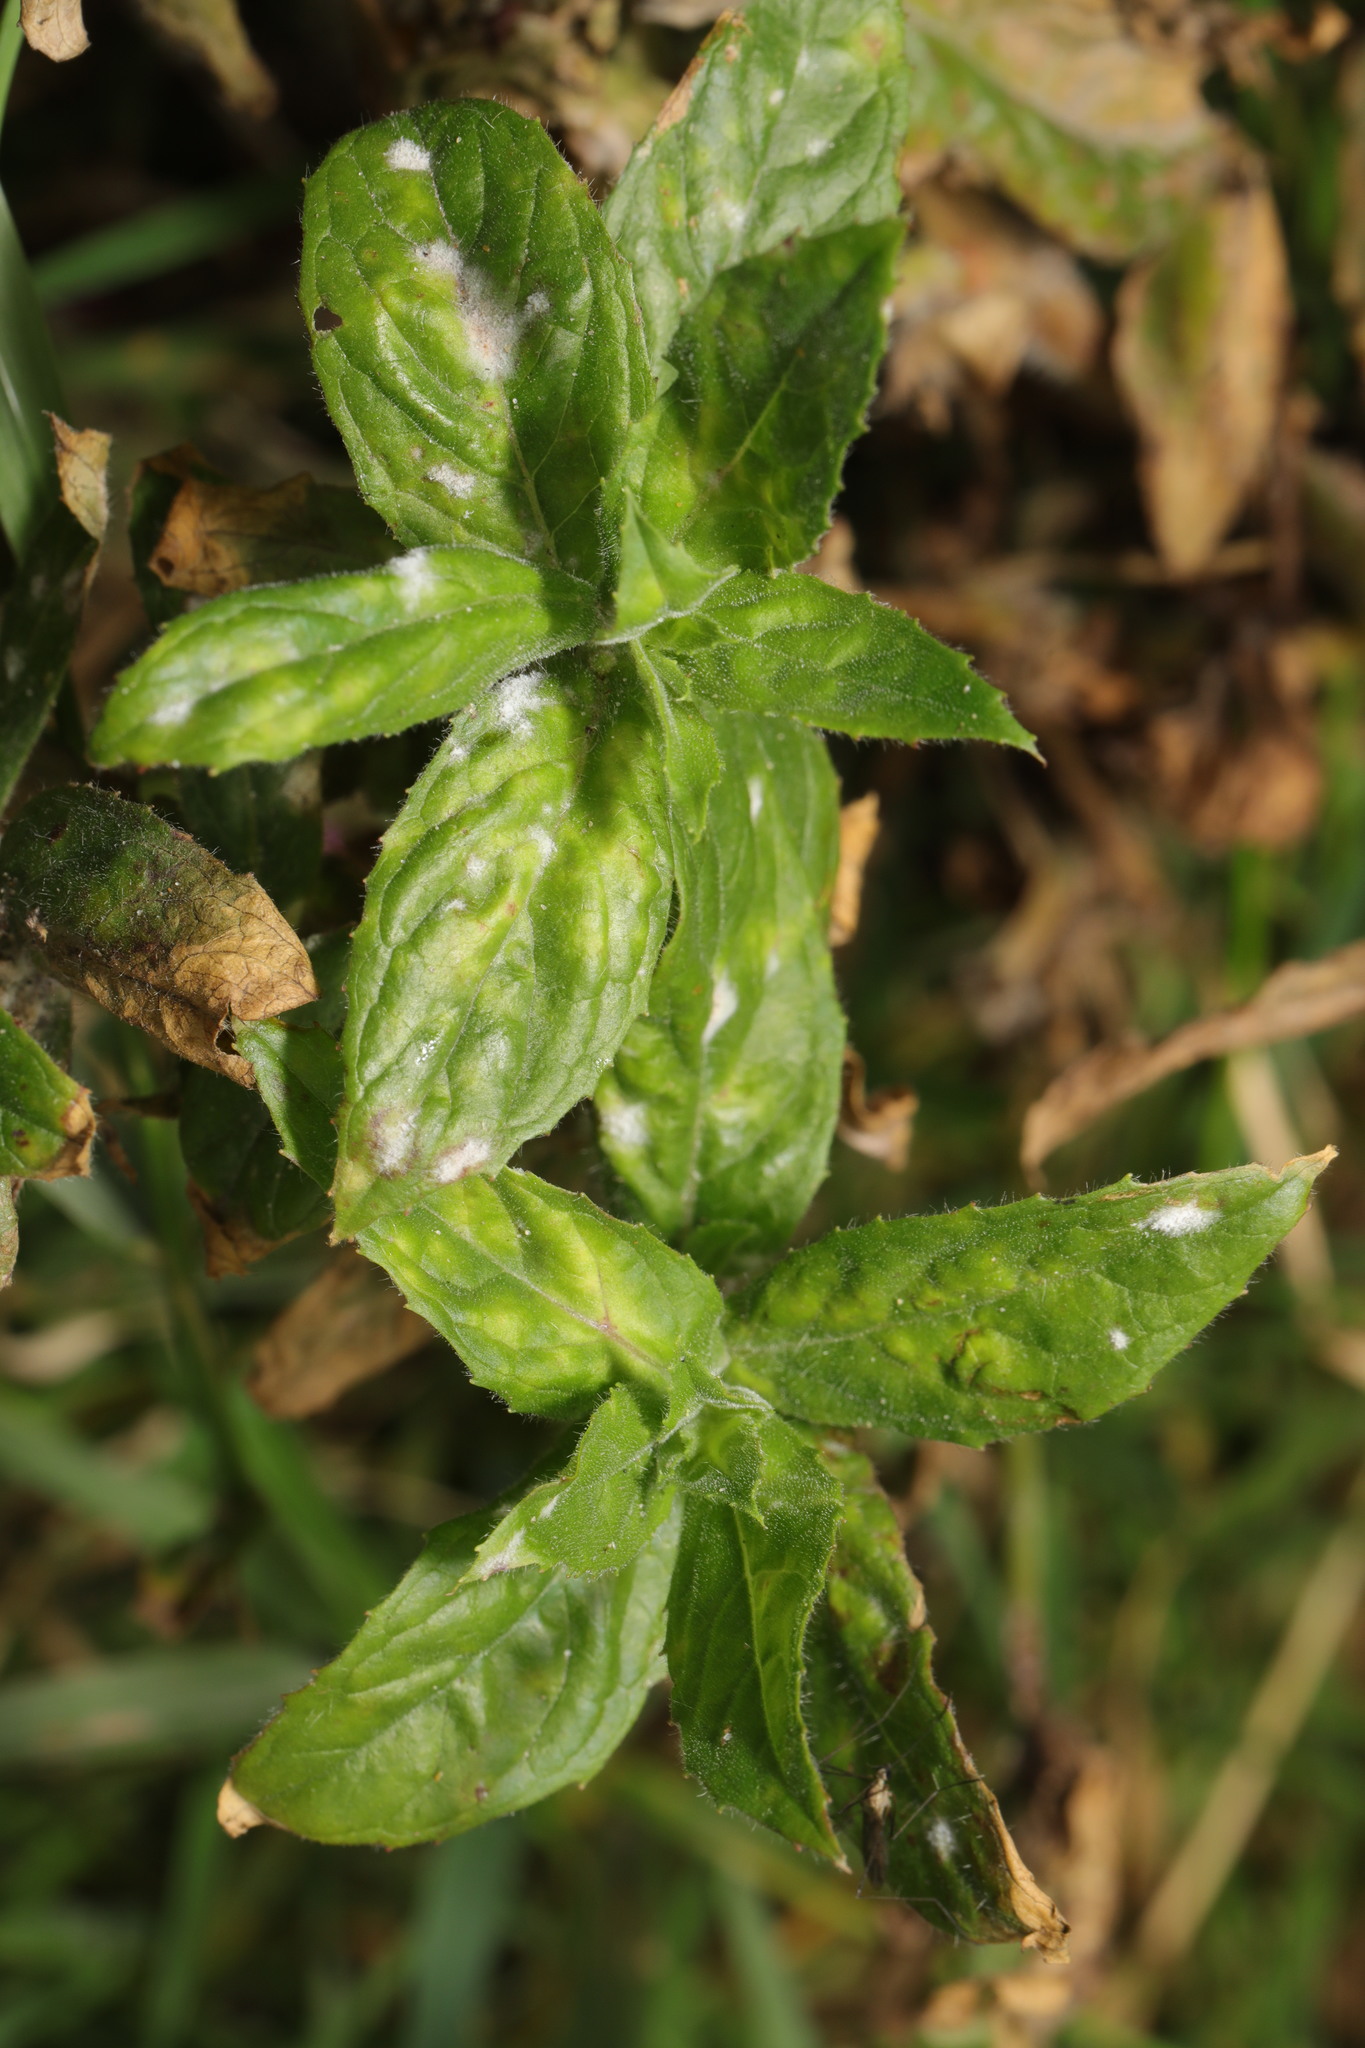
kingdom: Fungi
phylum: Ascomycota
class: Leotiomycetes
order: Helotiales
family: Erysiphaceae
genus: Podosphaera
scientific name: Podosphaera epilobii
